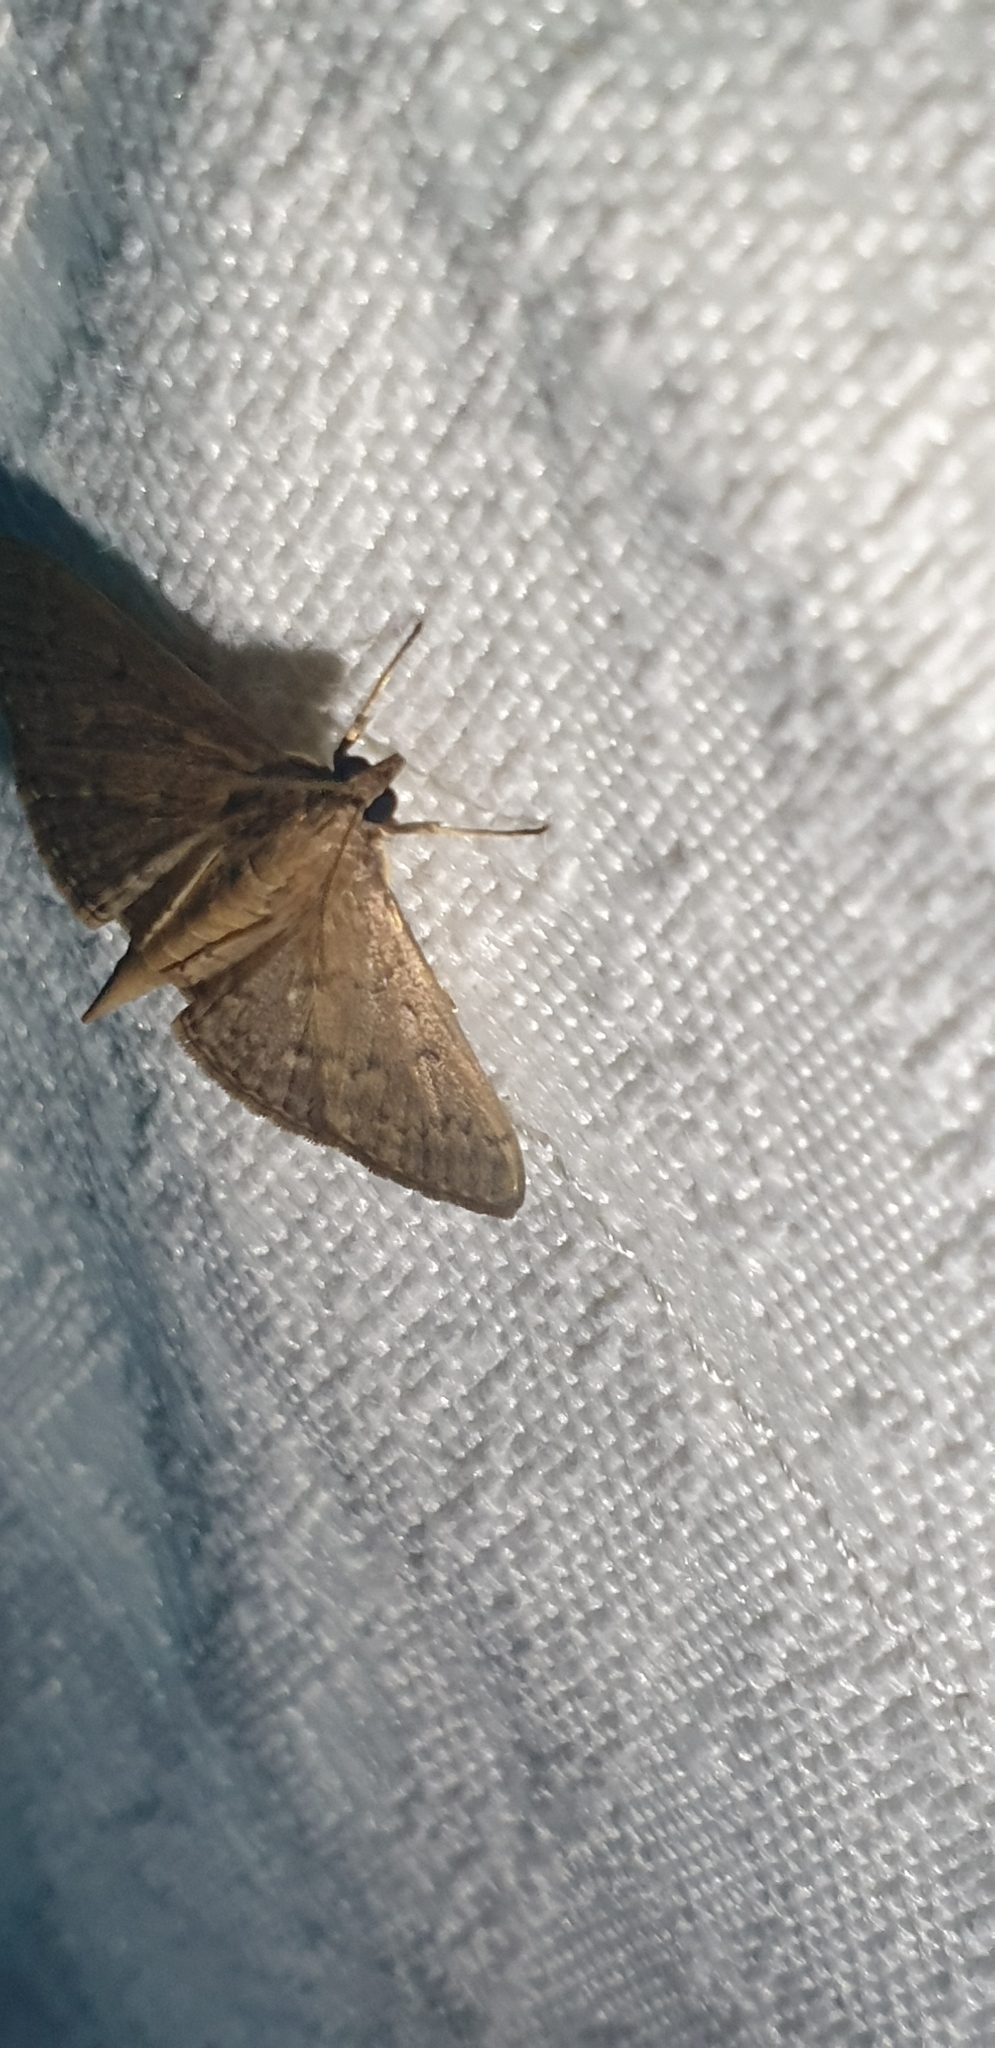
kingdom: Animalia
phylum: Arthropoda
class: Insecta
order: Lepidoptera
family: Crambidae
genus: Herpetogramma
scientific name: Herpetogramma licarsisalis
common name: Grass webworm
